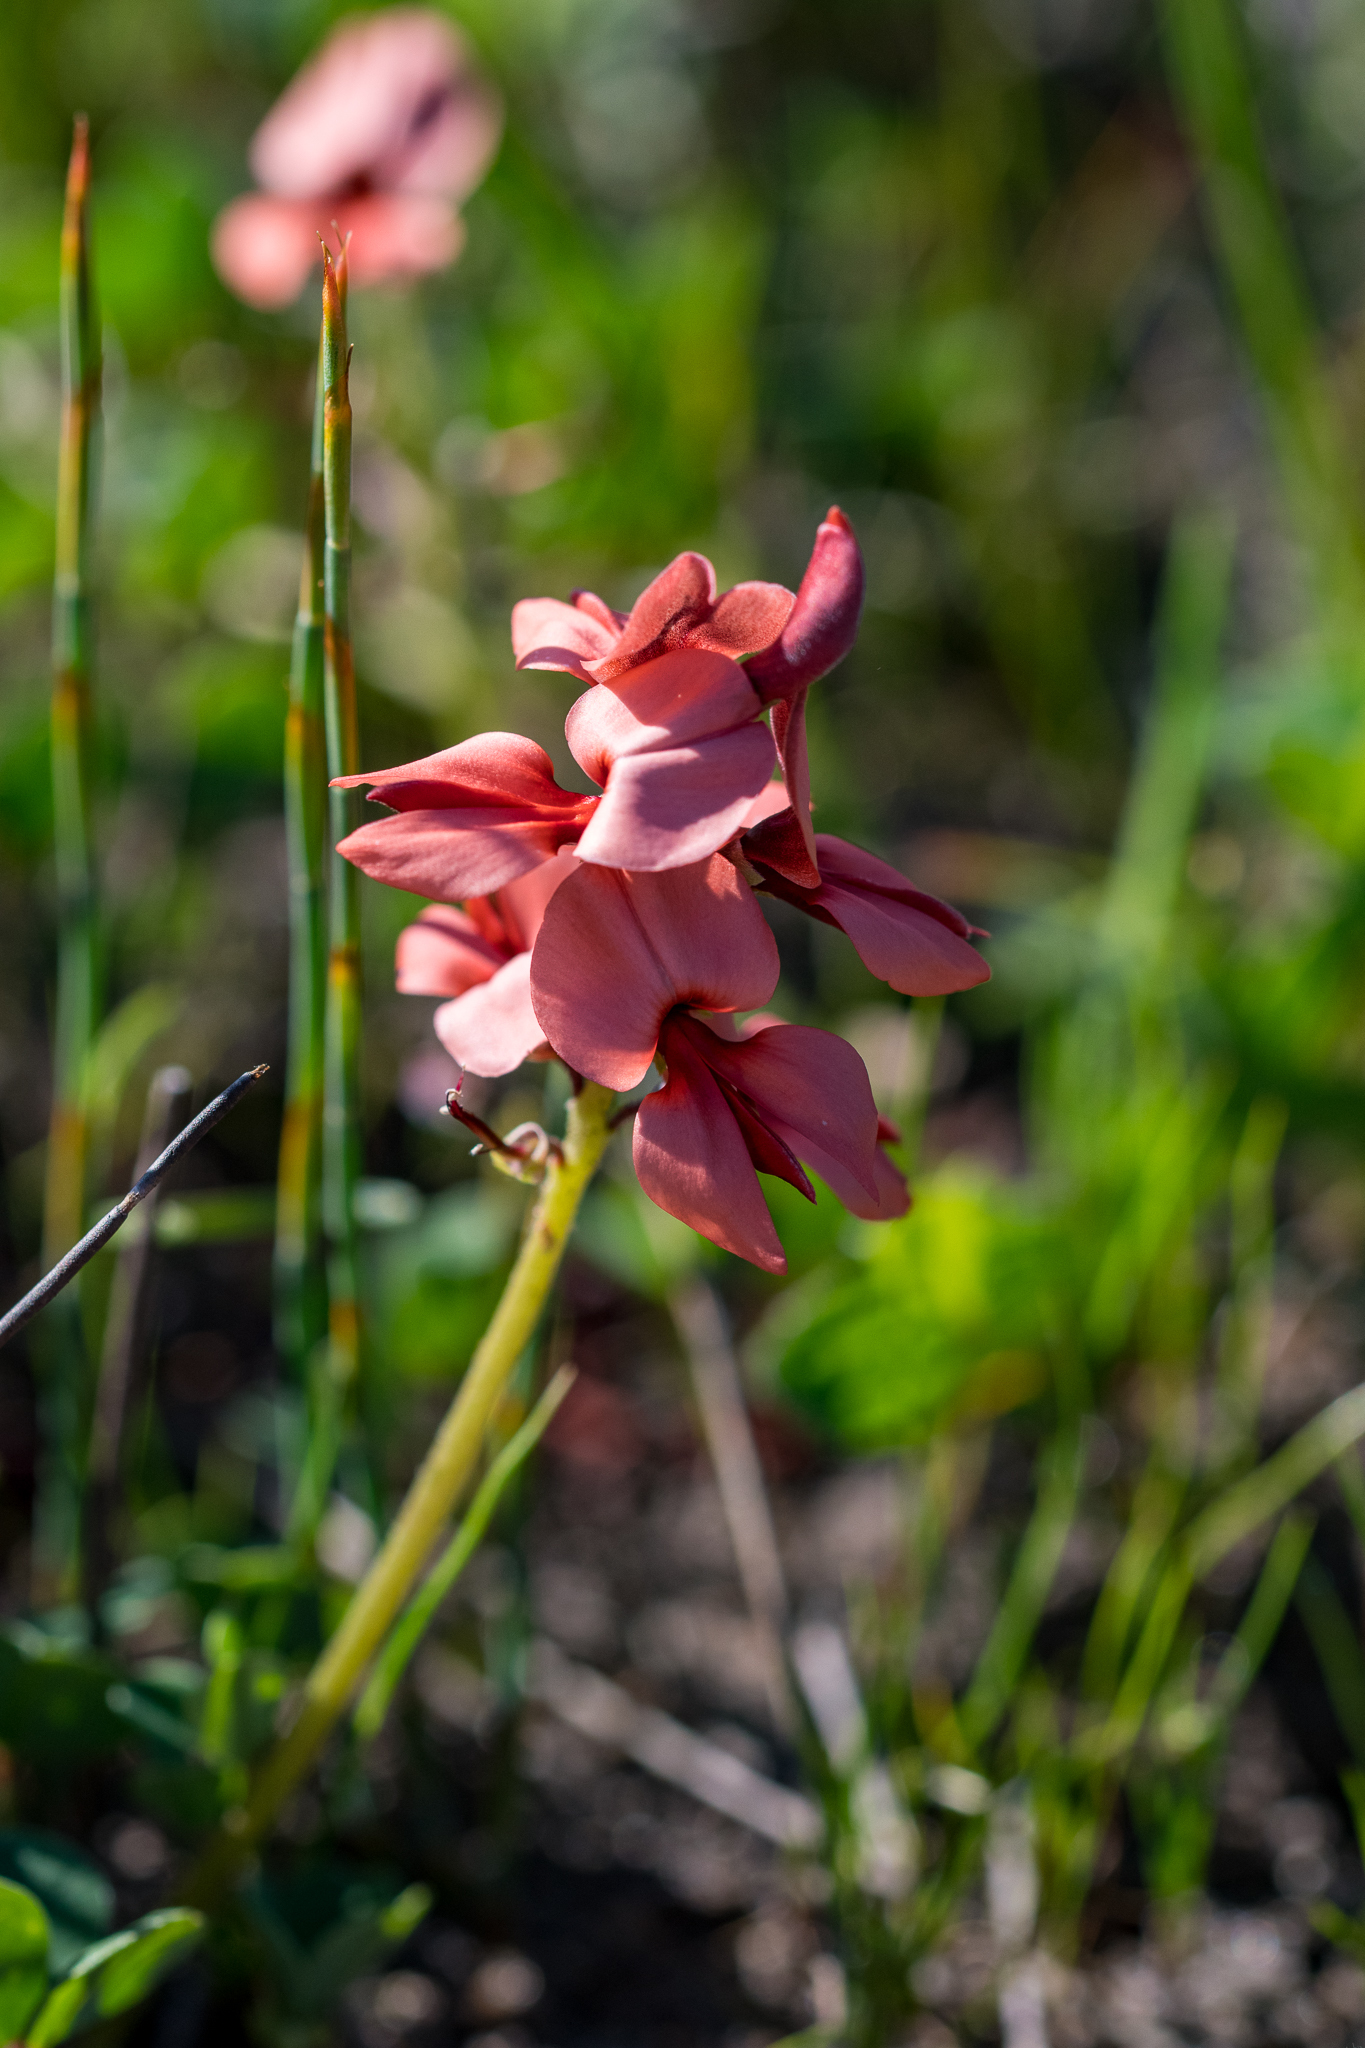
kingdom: Plantae
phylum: Tracheophyta
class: Magnoliopsida
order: Fabales
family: Fabaceae
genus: Indigofera
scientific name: Indigofera procumbens
